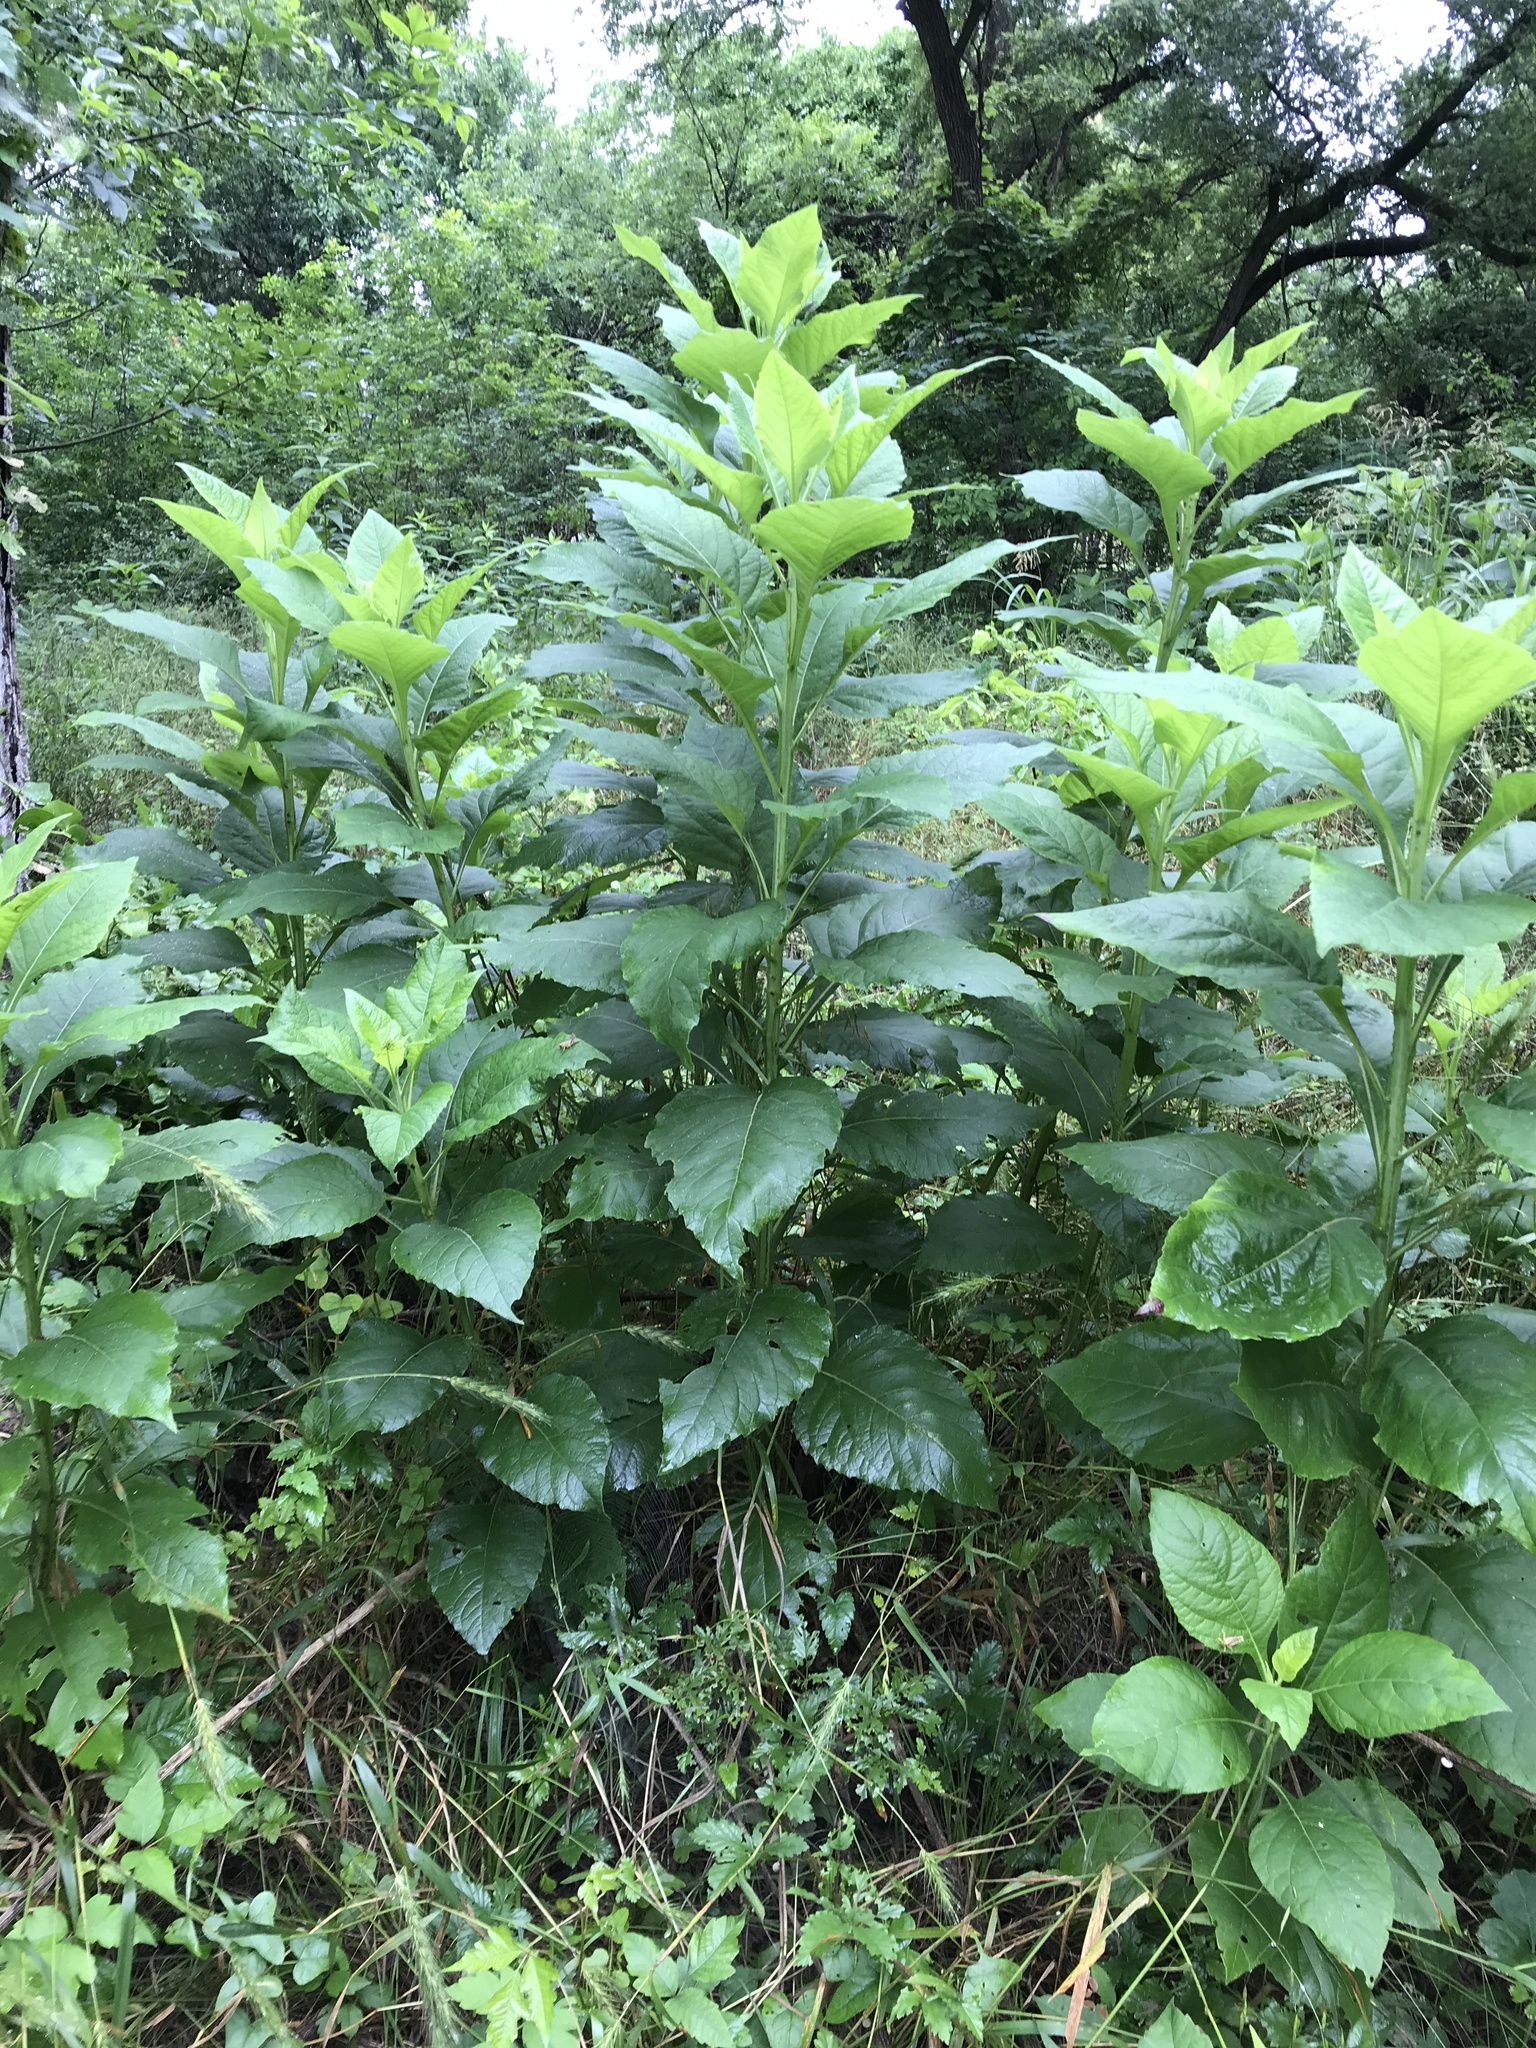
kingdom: Plantae
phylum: Tracheophyta
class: Magnoliopsida
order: Asterales
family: Asteraceae
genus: Verbesina
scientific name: Verbesina virginica
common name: Frostweed
